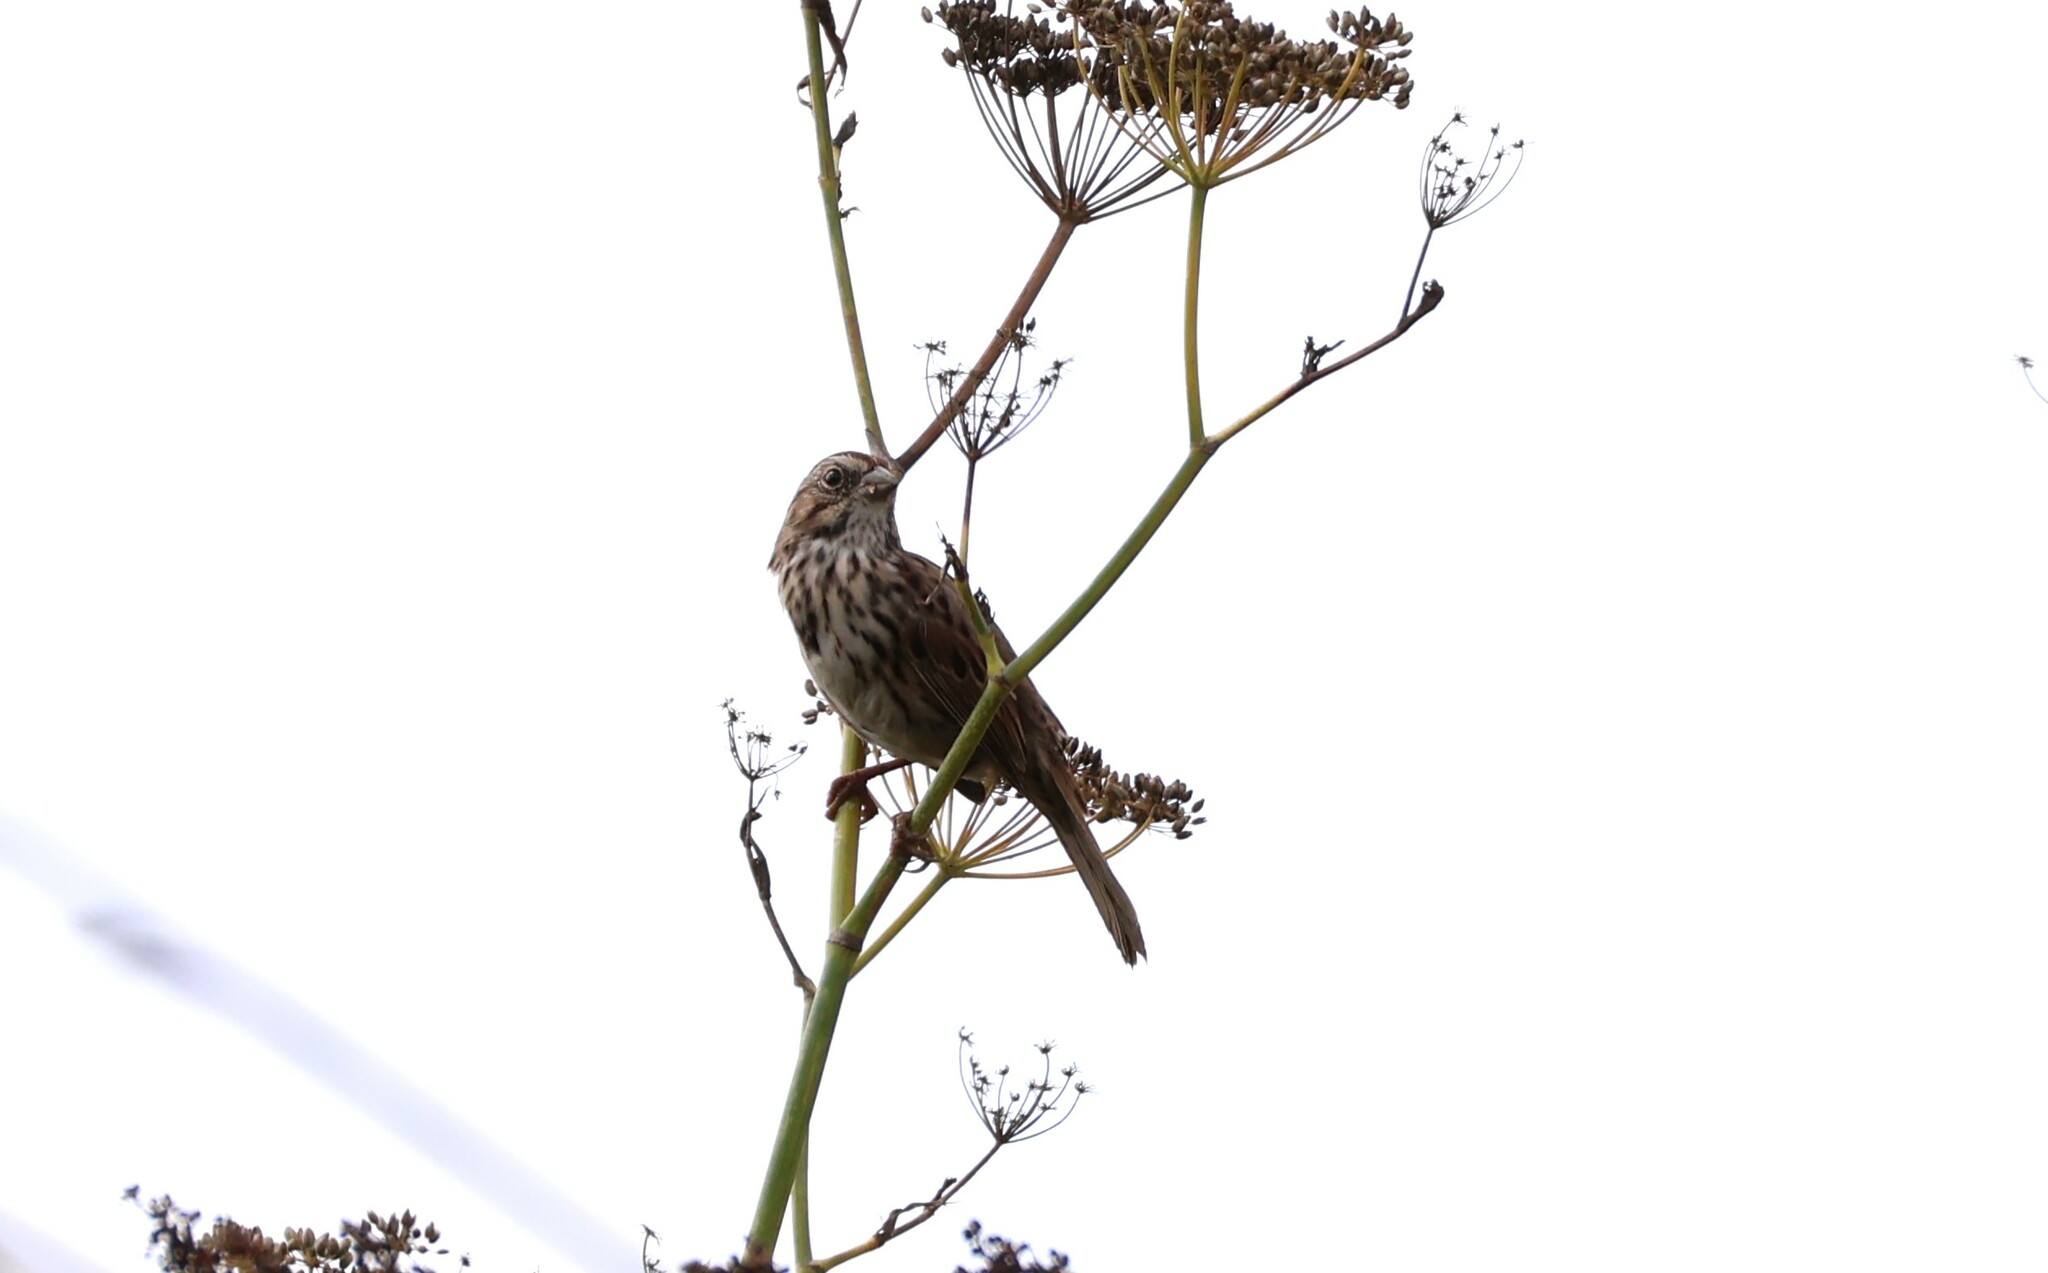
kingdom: Animalia
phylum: Chordata
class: Aves
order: Passeriformes
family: Passerellidae
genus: Melospiza
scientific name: Melospiza melodia
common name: Song sparrow
